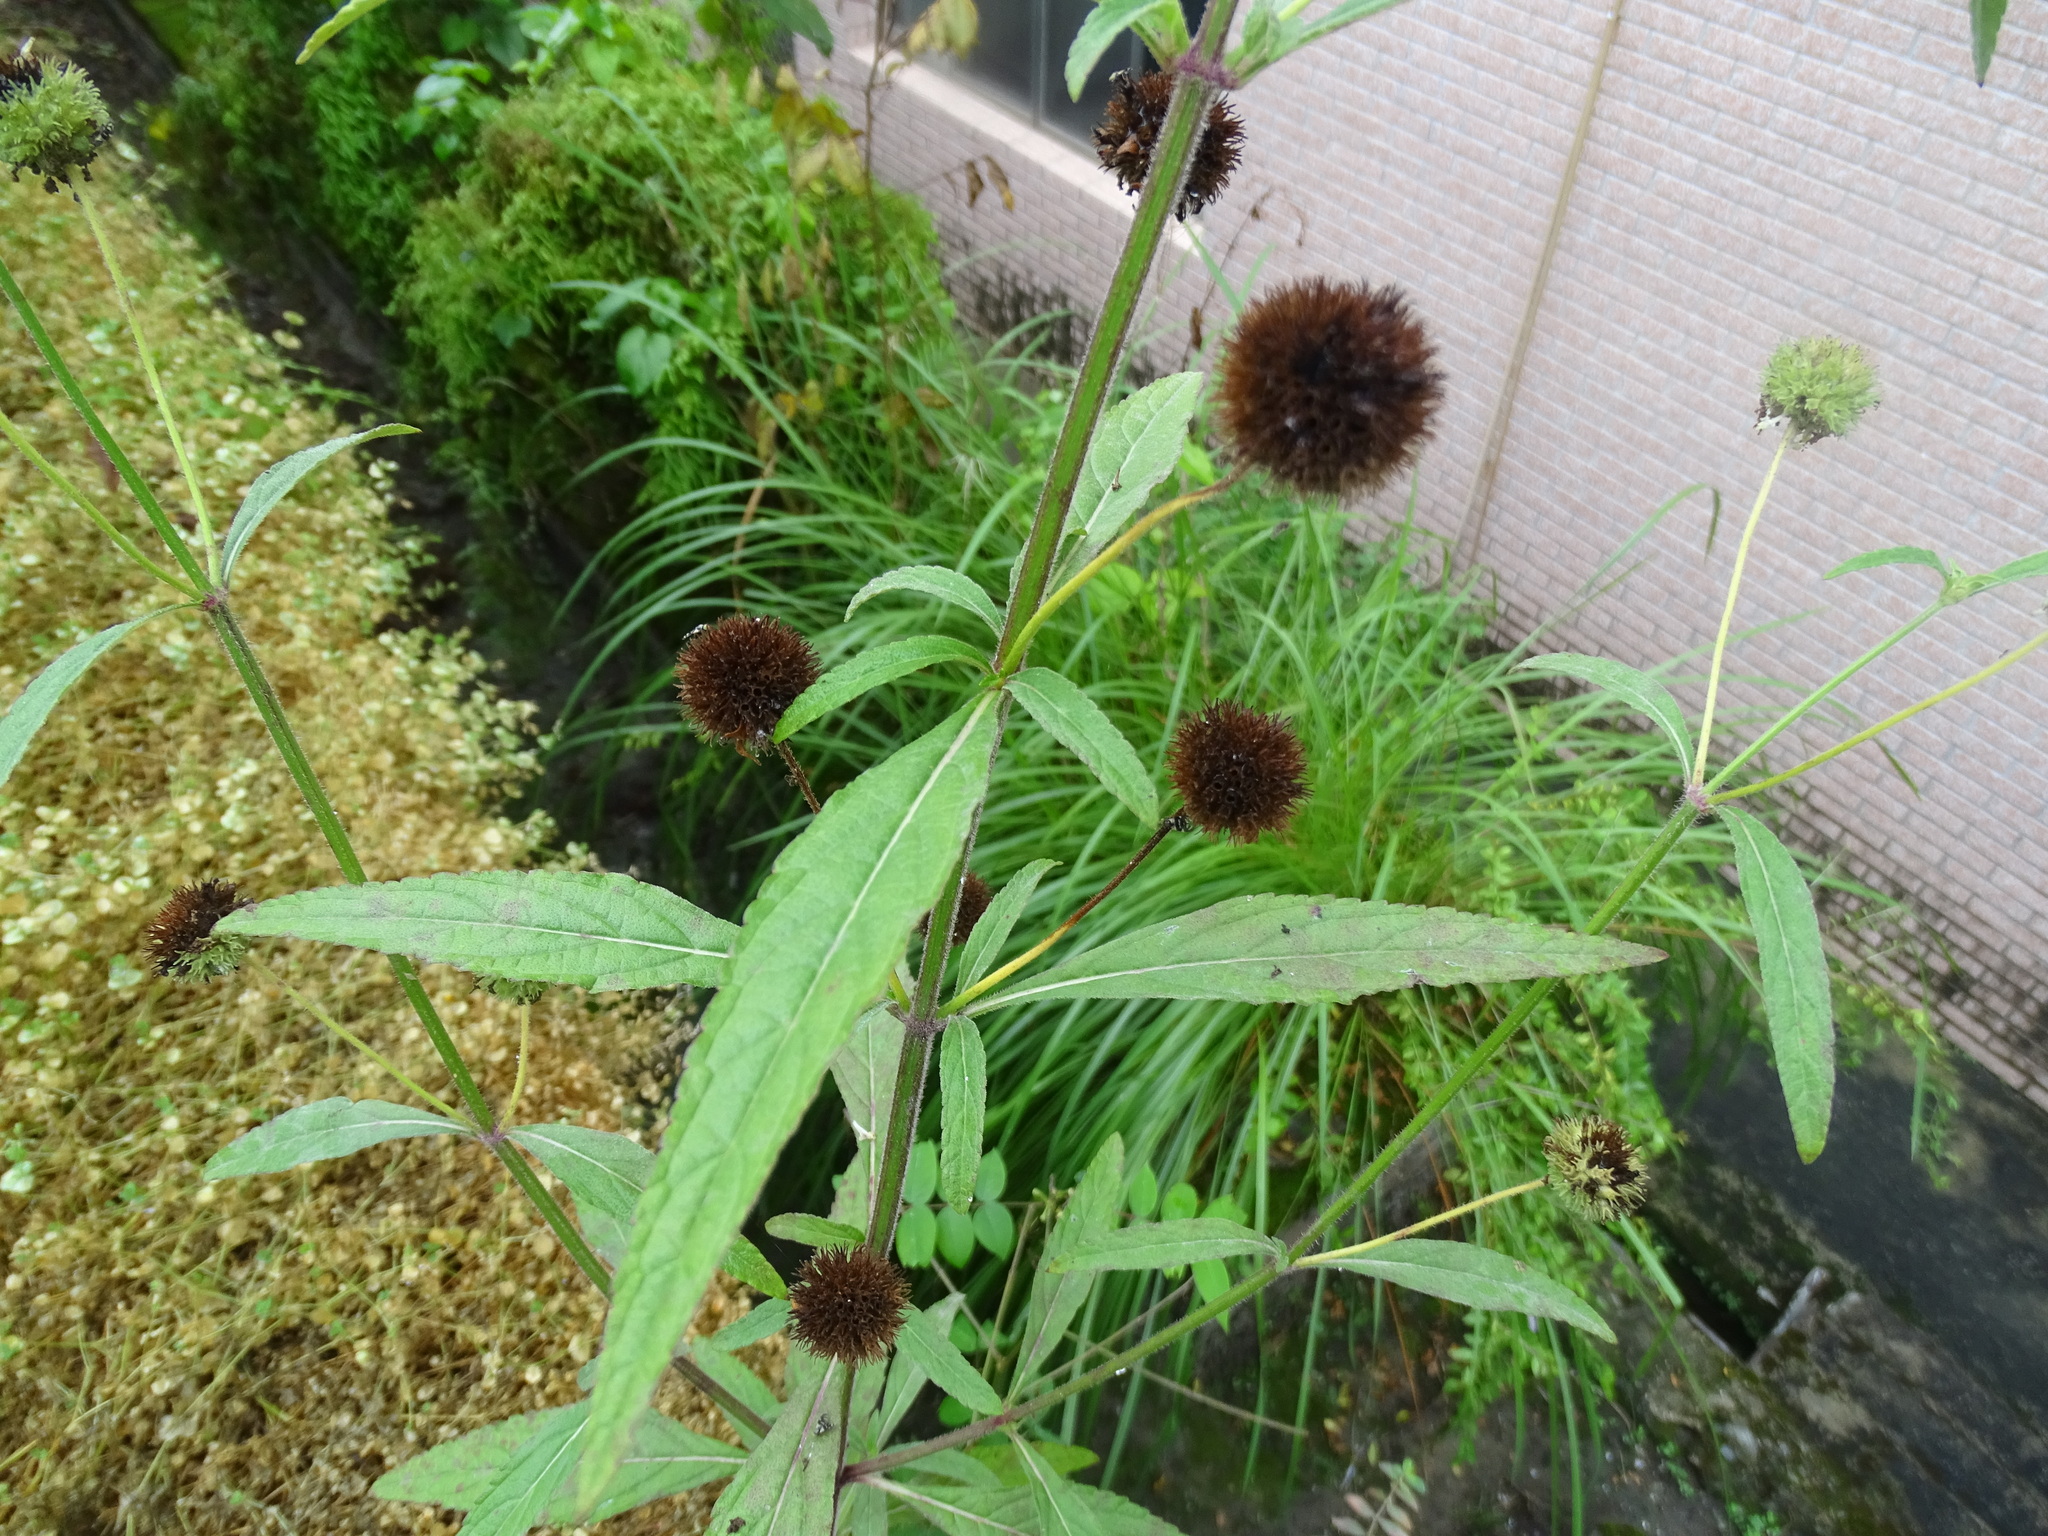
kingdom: Plantae
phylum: Tracheophyta
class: Magnoliopsida
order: Lamiales
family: Lamiaceae
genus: Hyptis
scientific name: Hyptis capitata
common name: False ironwort
